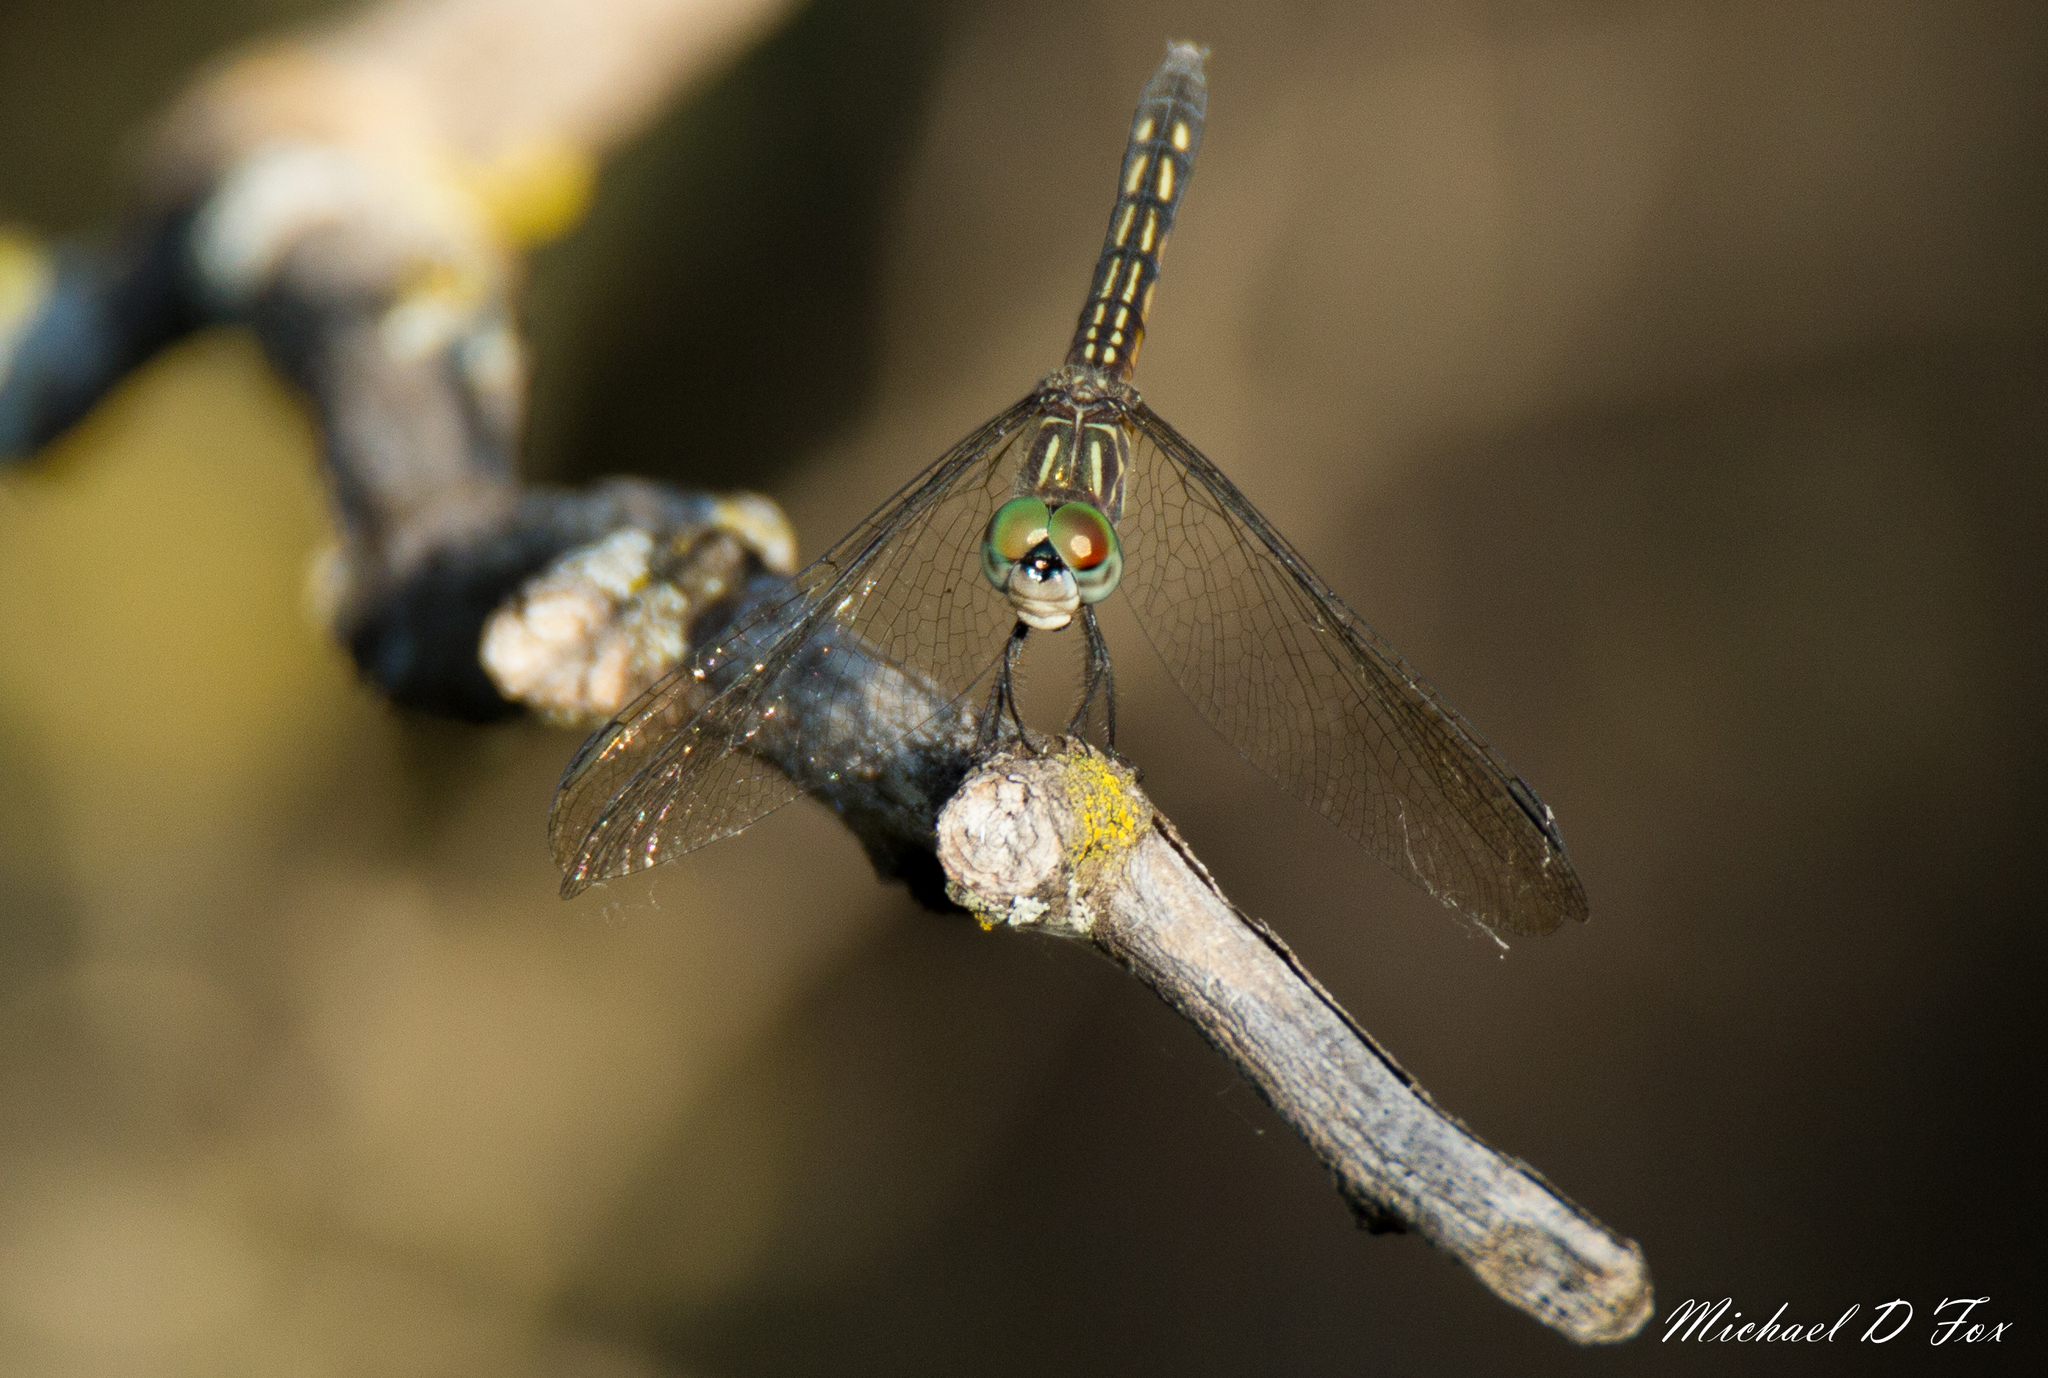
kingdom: Animalia
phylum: Arthropoda
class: Insecta
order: Odonata
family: Libellulidae
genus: Pachydiplax
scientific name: Pachydiplax longipennis
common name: Blue dasher
